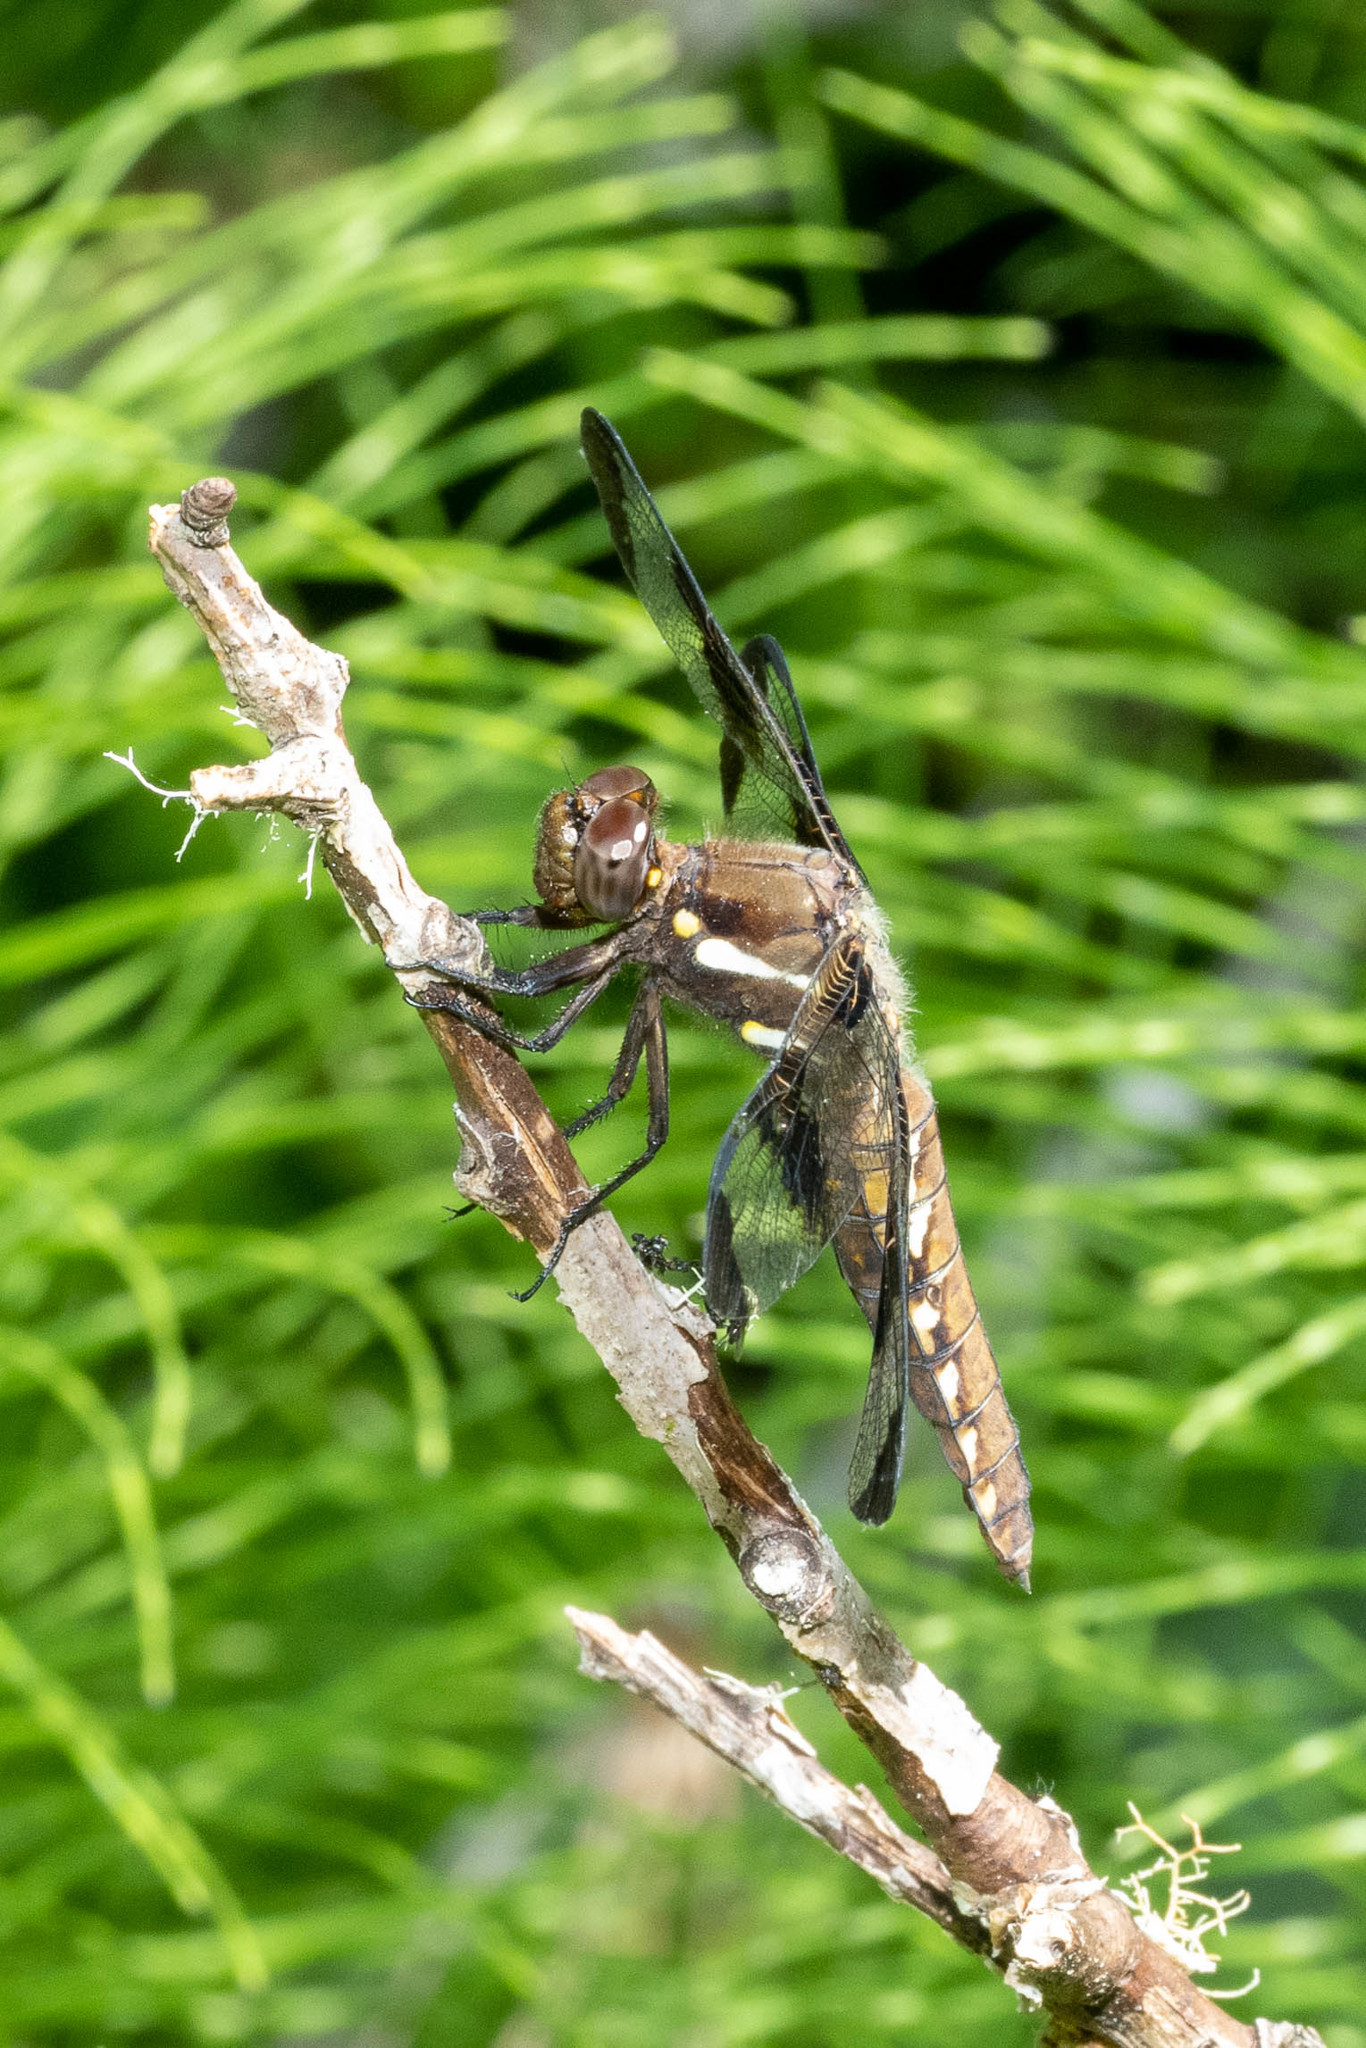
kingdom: Animalia
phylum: Arthropoda
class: Insecta
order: Odonata
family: Libellulidae
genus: Plathemis
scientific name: Plathemis lydia
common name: Common whitetail
